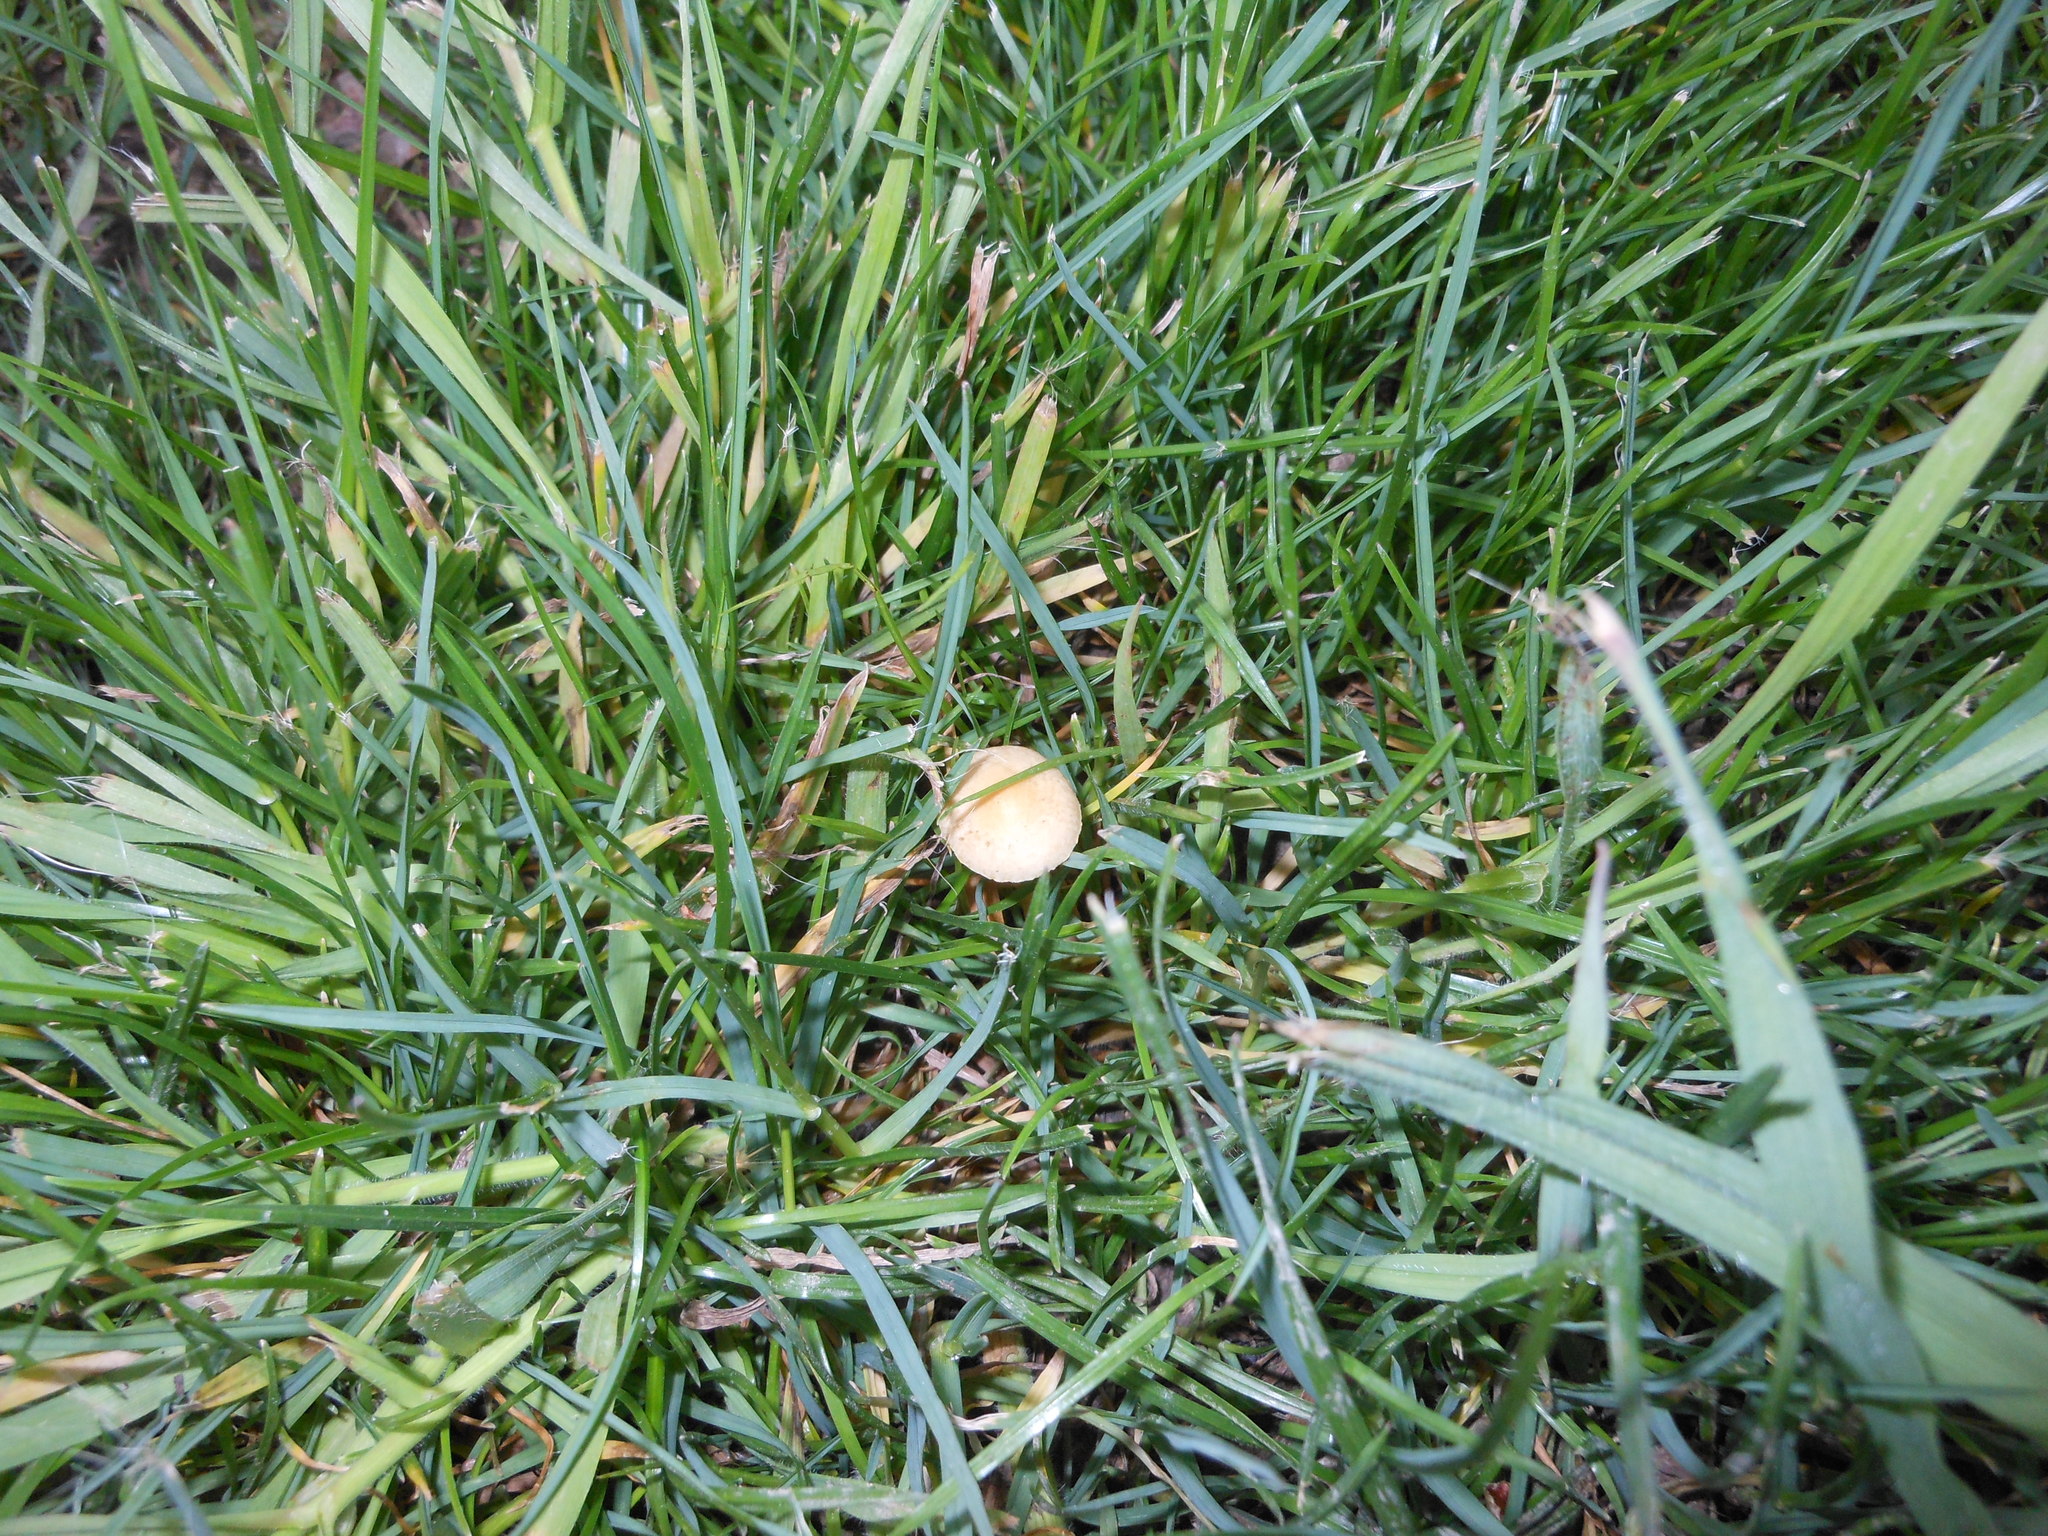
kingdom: Fungi
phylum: Basidiomycota
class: Agaricomycetes
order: Agaricales
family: Strophariaceae
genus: Agrocybe
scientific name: Agrocybe pediades
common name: Common fieldcap
